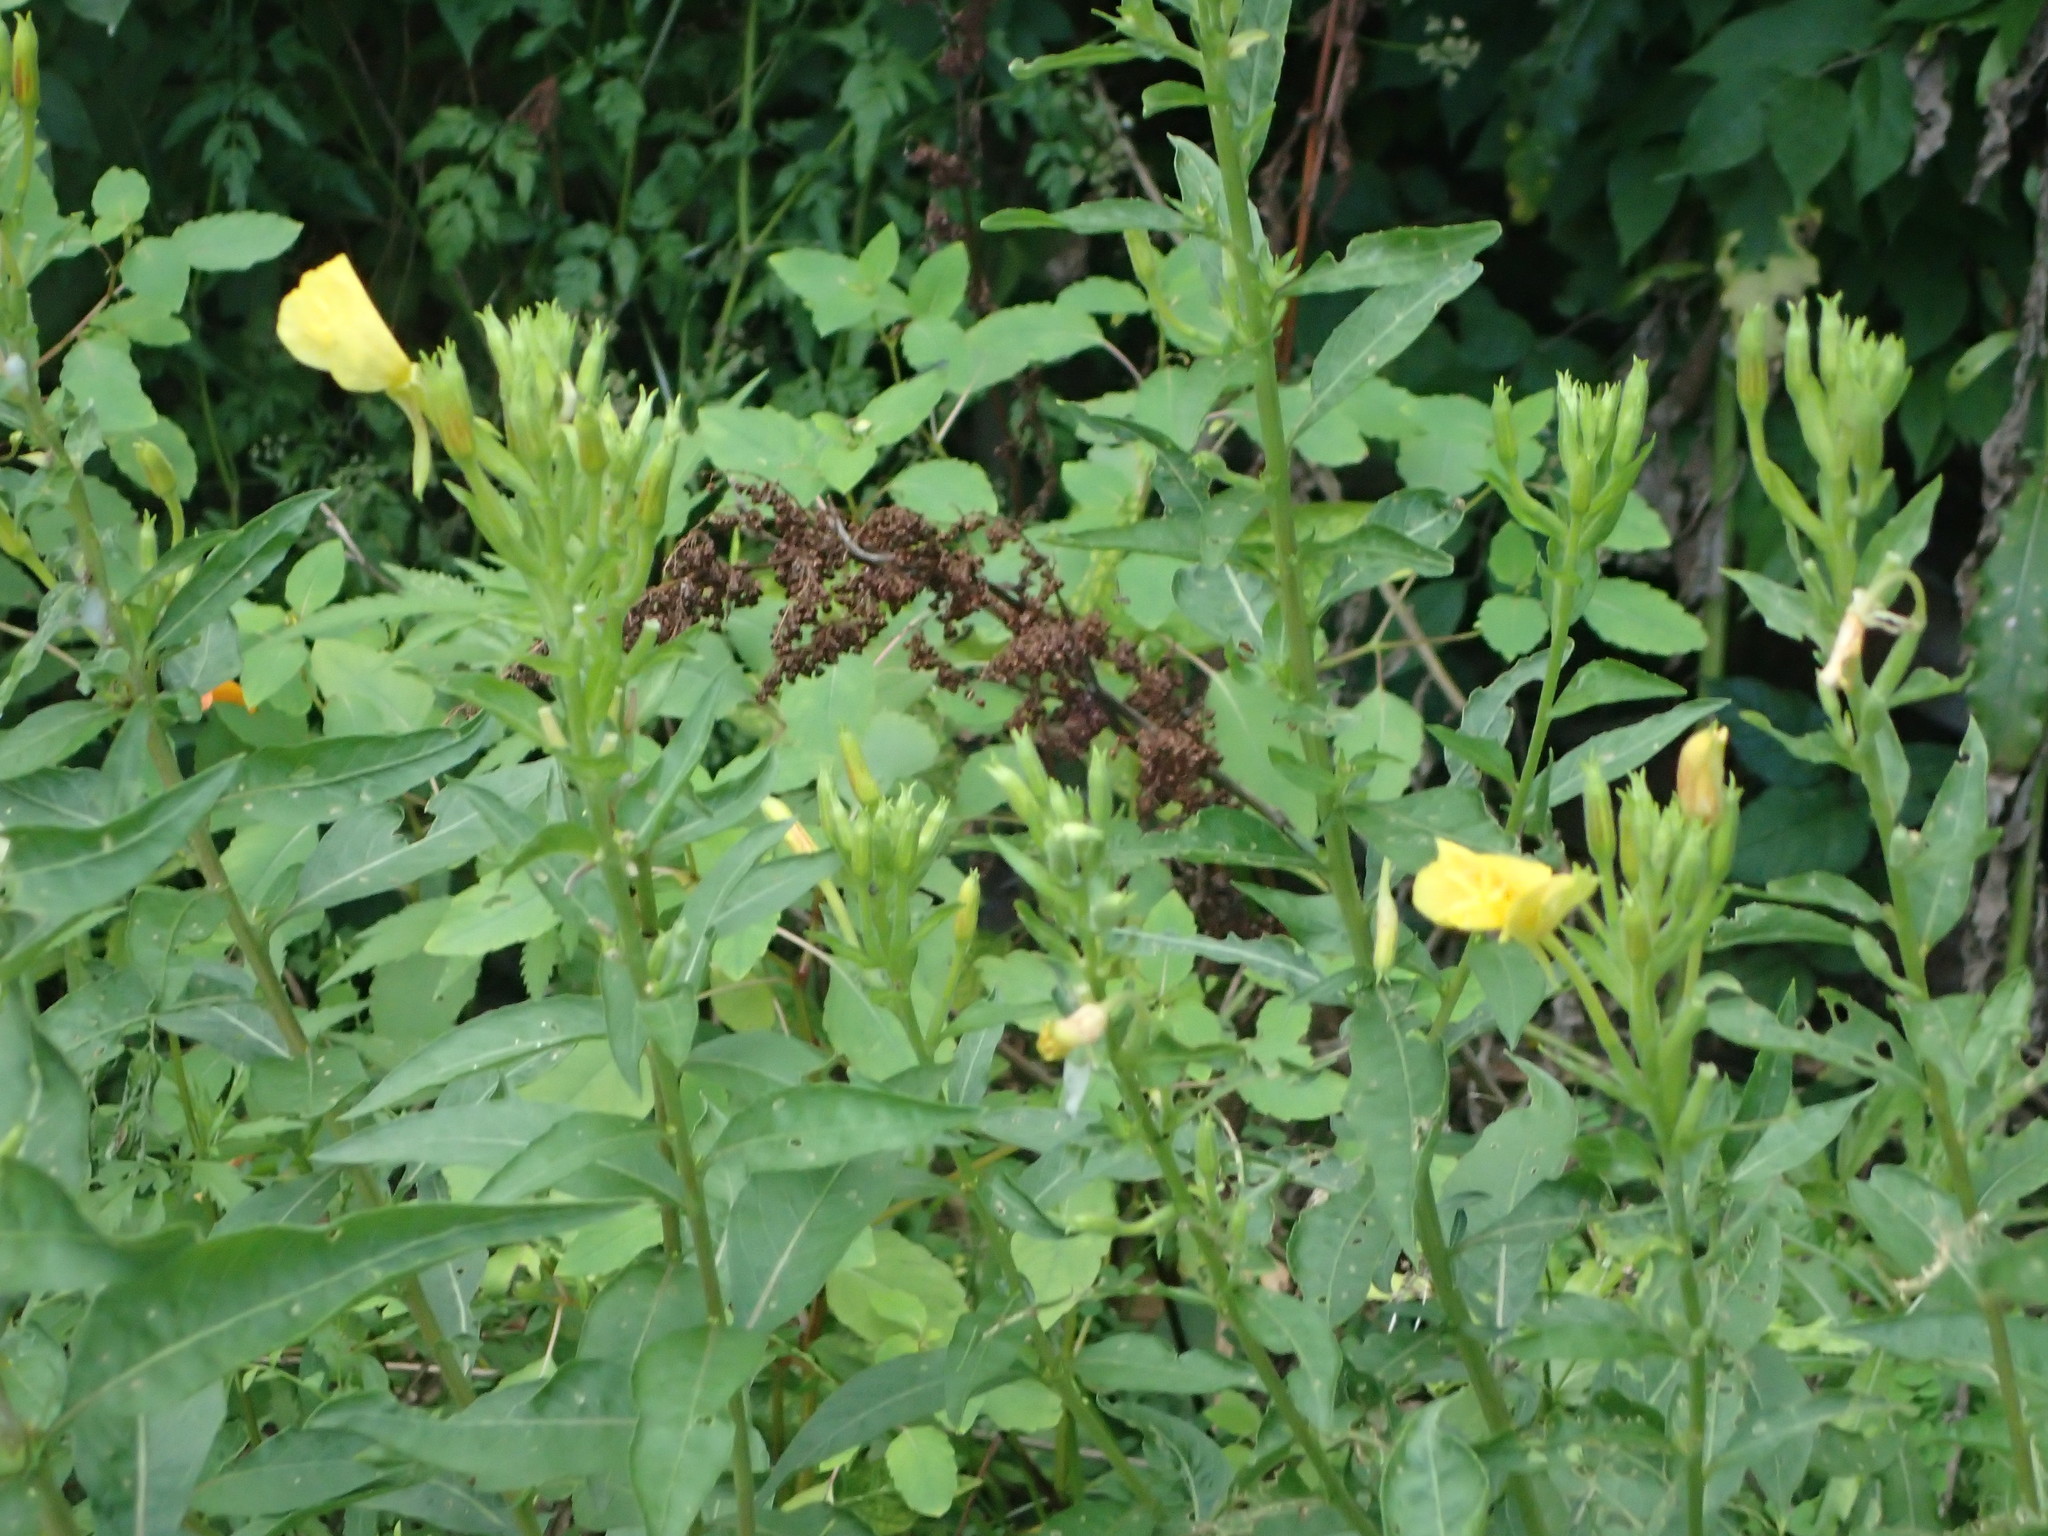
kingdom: Plantae
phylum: Tracheophyta
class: Magnoliopsida
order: Myrtales
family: Onagraceae
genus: Oenothera
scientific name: Oenothera biennis
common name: Common evening-primrose
